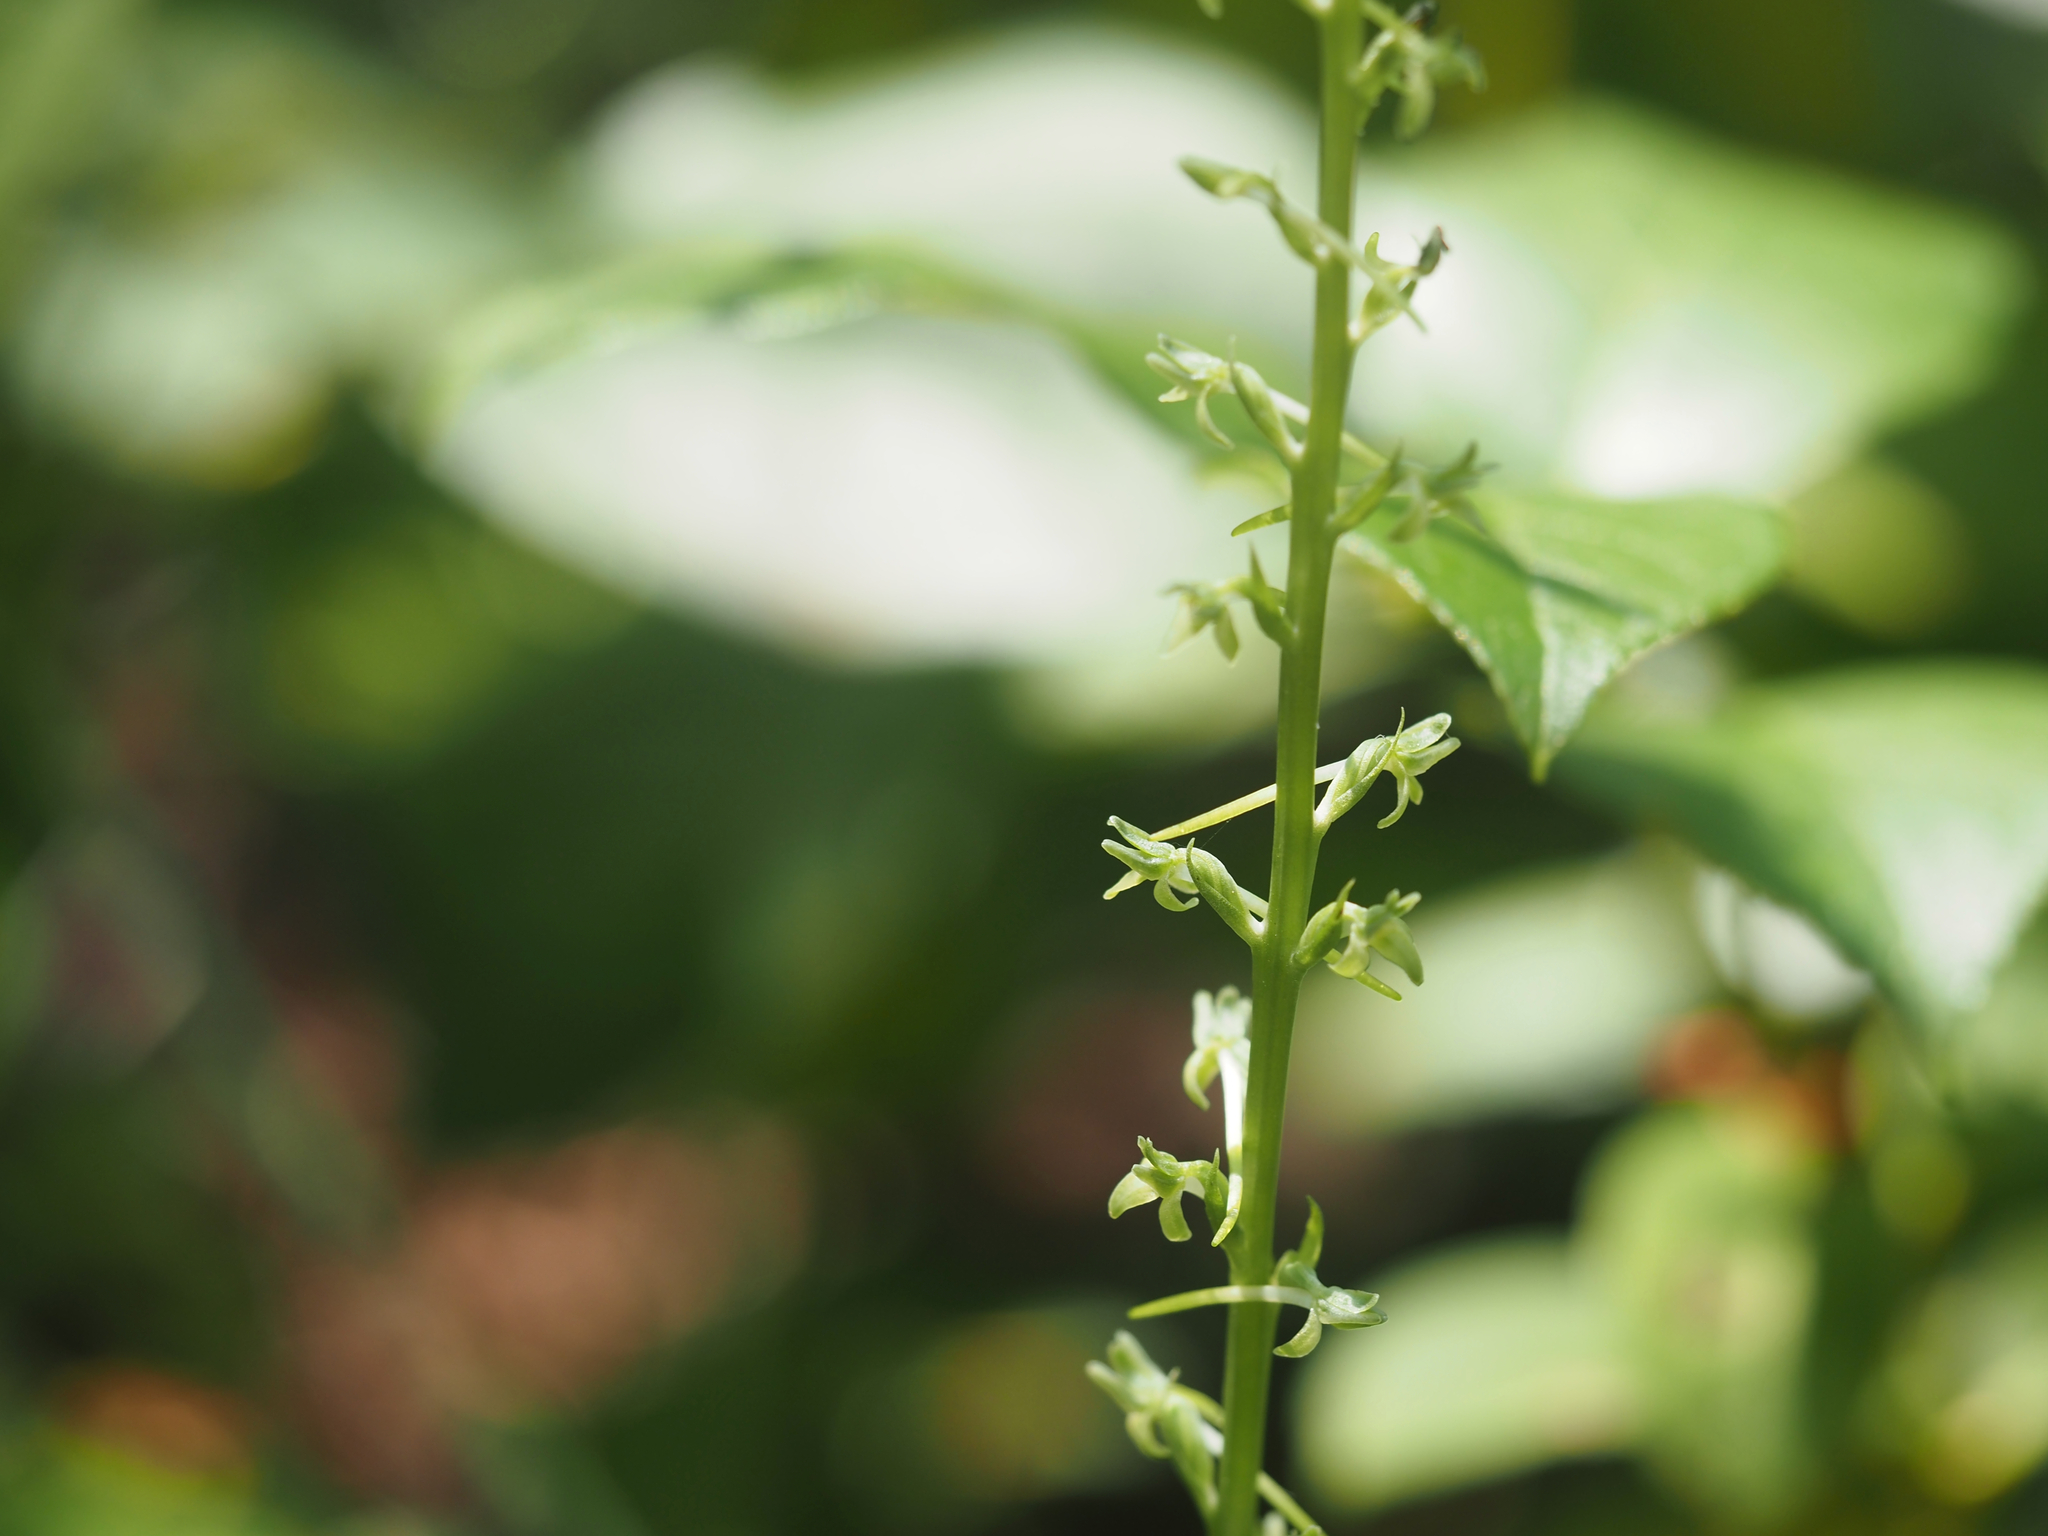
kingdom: Plantae
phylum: Tracheophyta
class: Liliopsida
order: Asparagales
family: Orchidaceae
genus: Platanthera
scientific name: Platanthera elongata
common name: Dense-flowered rein orchid
